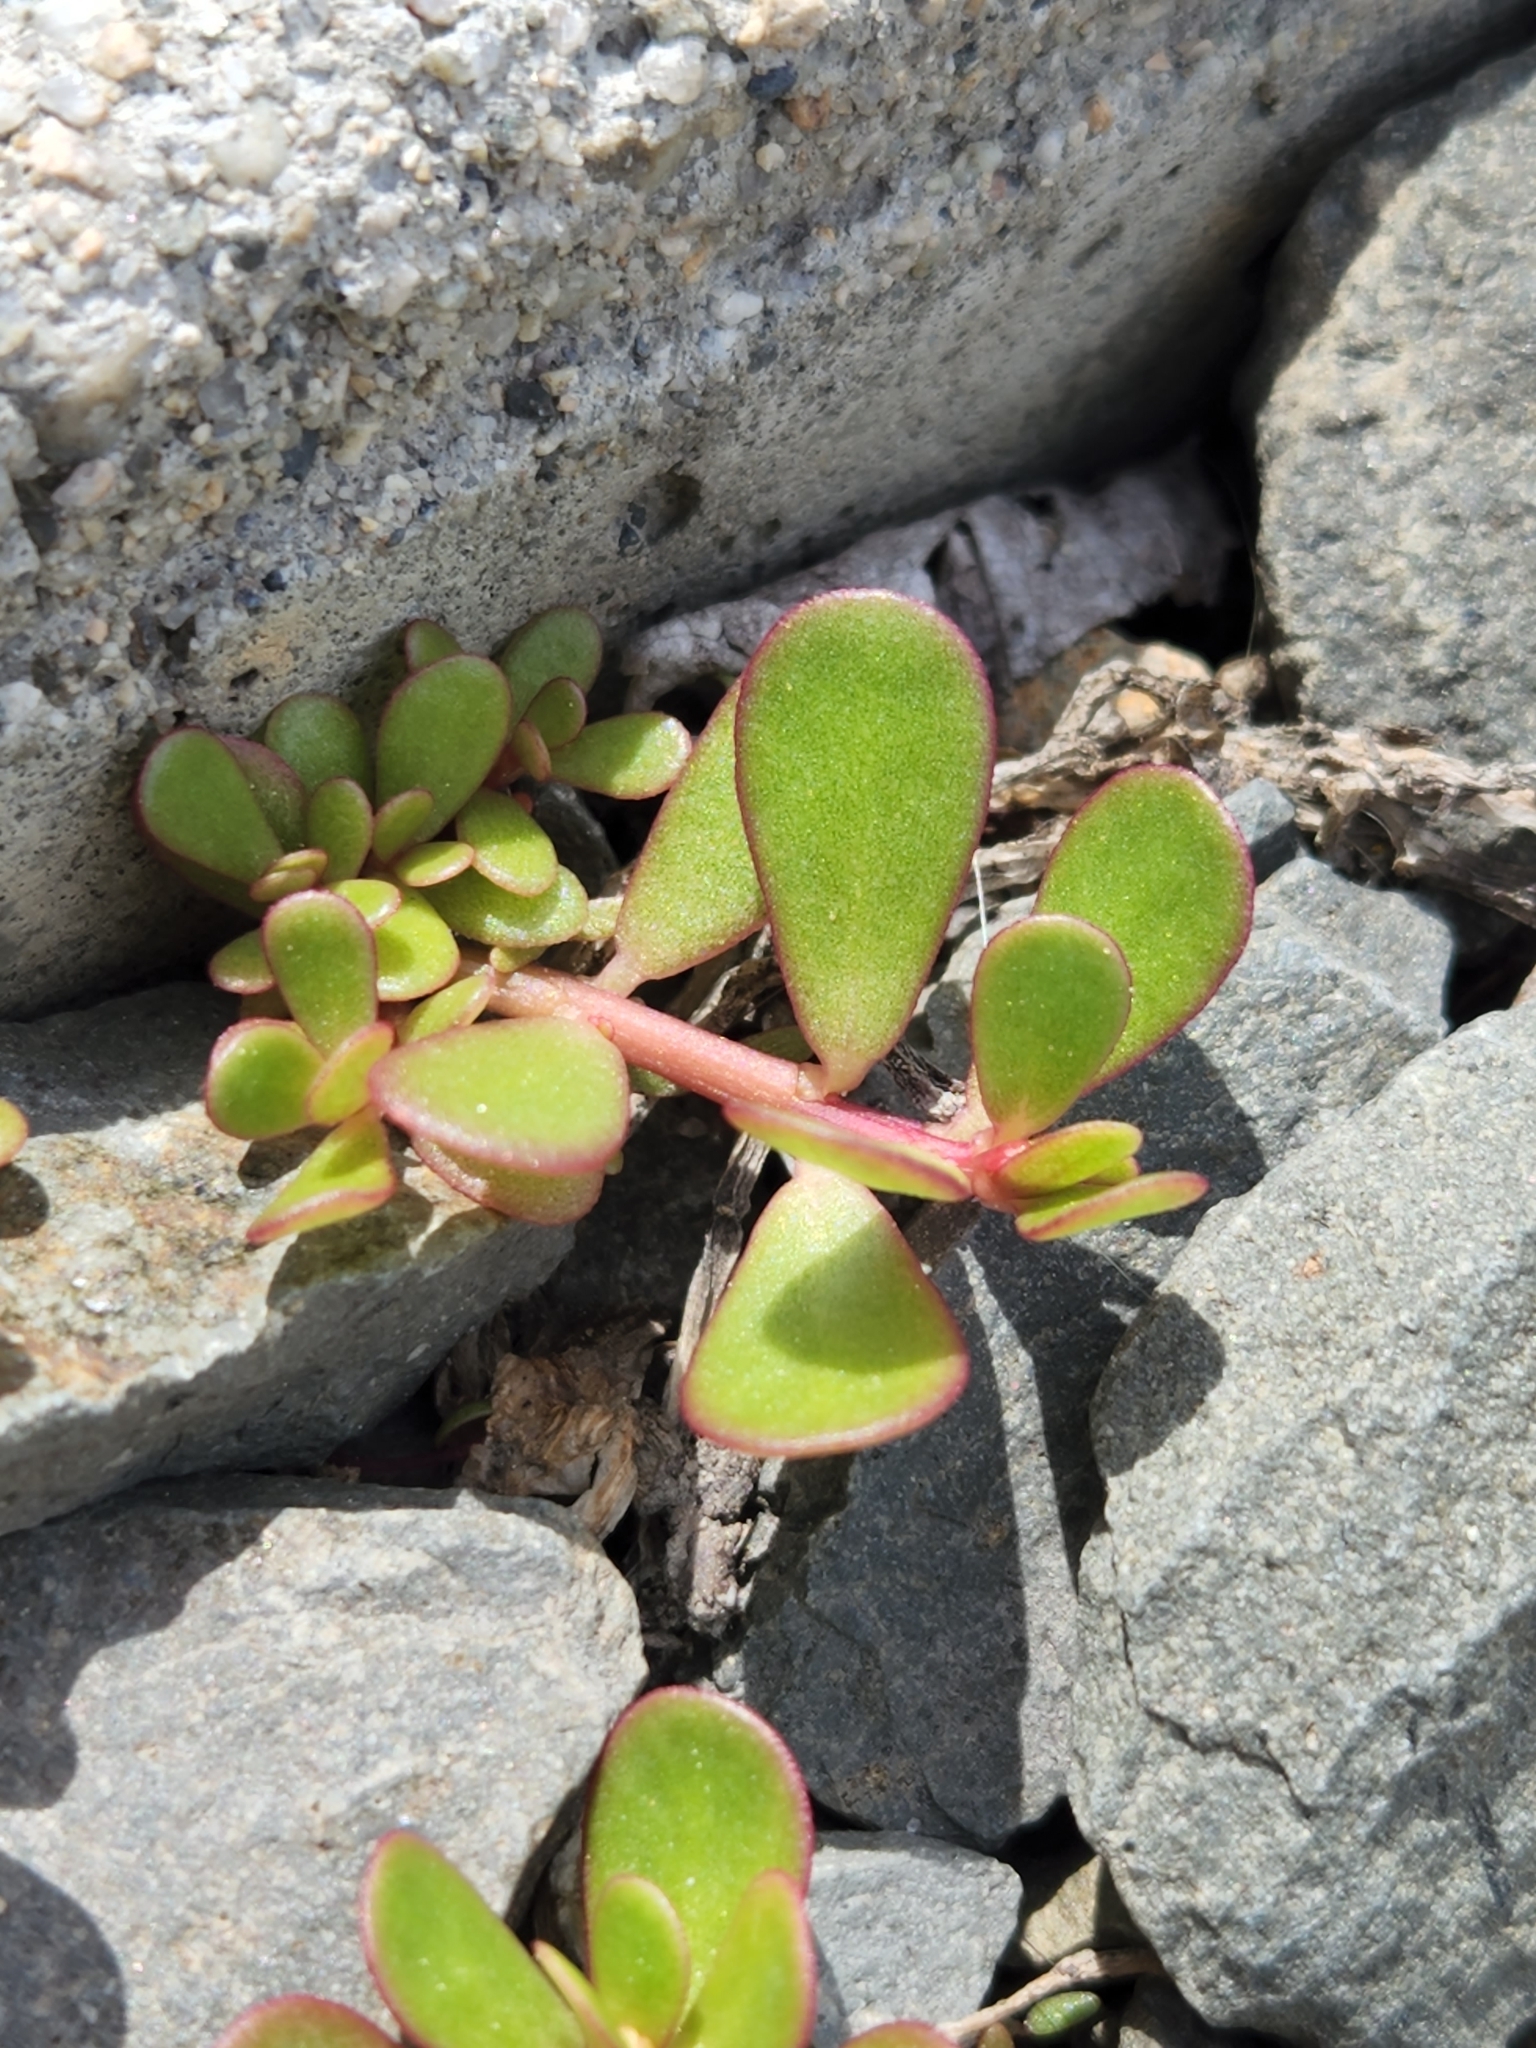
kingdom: Plantae
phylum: Tracheophyta
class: Magnoliopsida
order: Caryophyllales
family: Portulacaceae
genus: Portulaca
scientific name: Portulaca oleracea
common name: Common purslane
